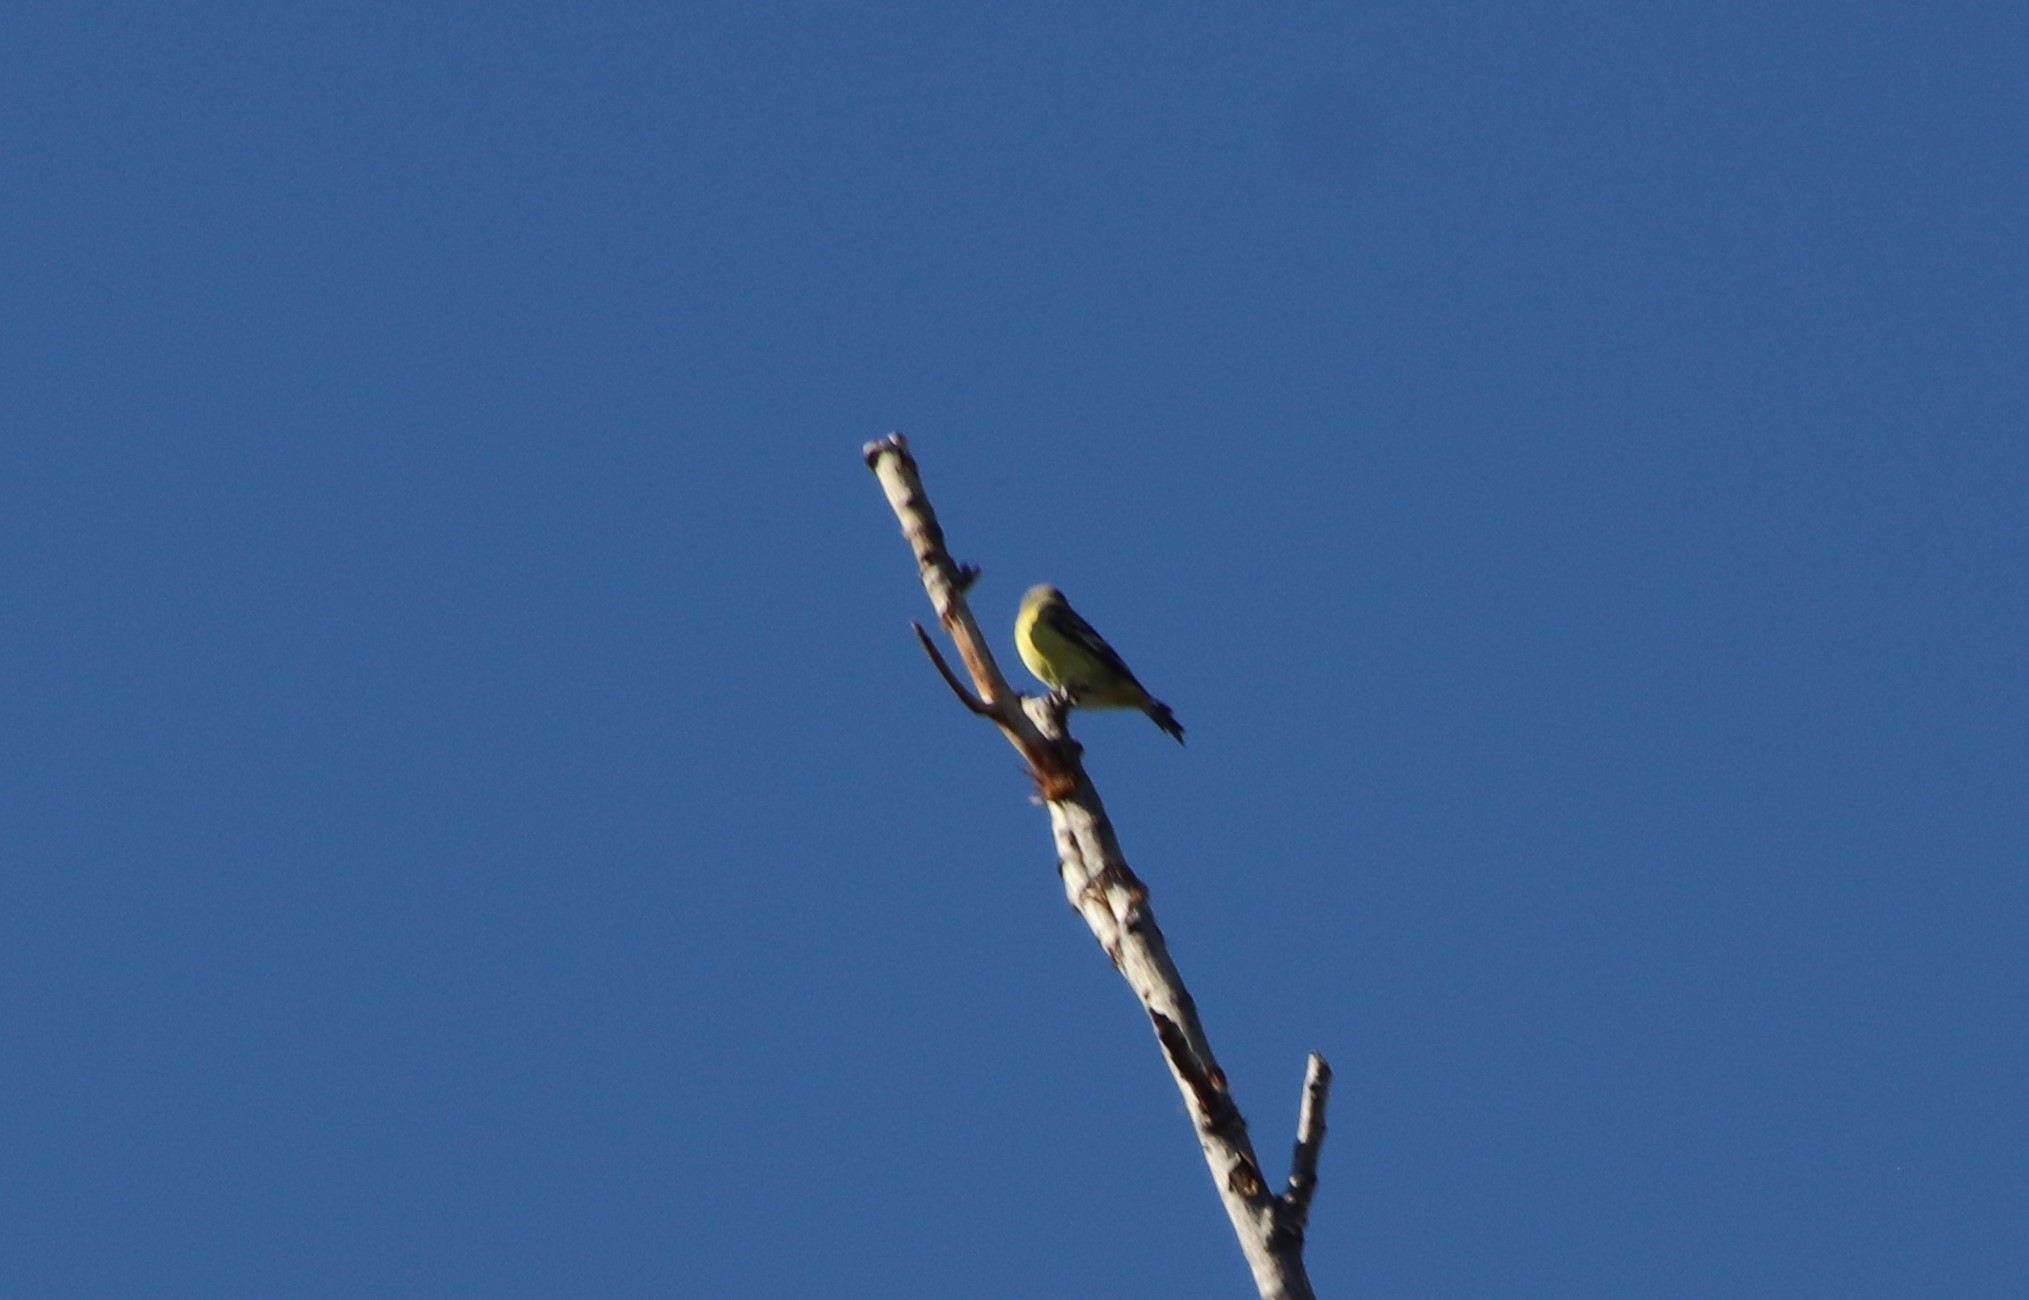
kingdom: Animalia
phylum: Chordata
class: Aves
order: Passeriformes
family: Fringillidae
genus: Spinus
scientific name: Spinus psaltria
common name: Lesser goldfinch
